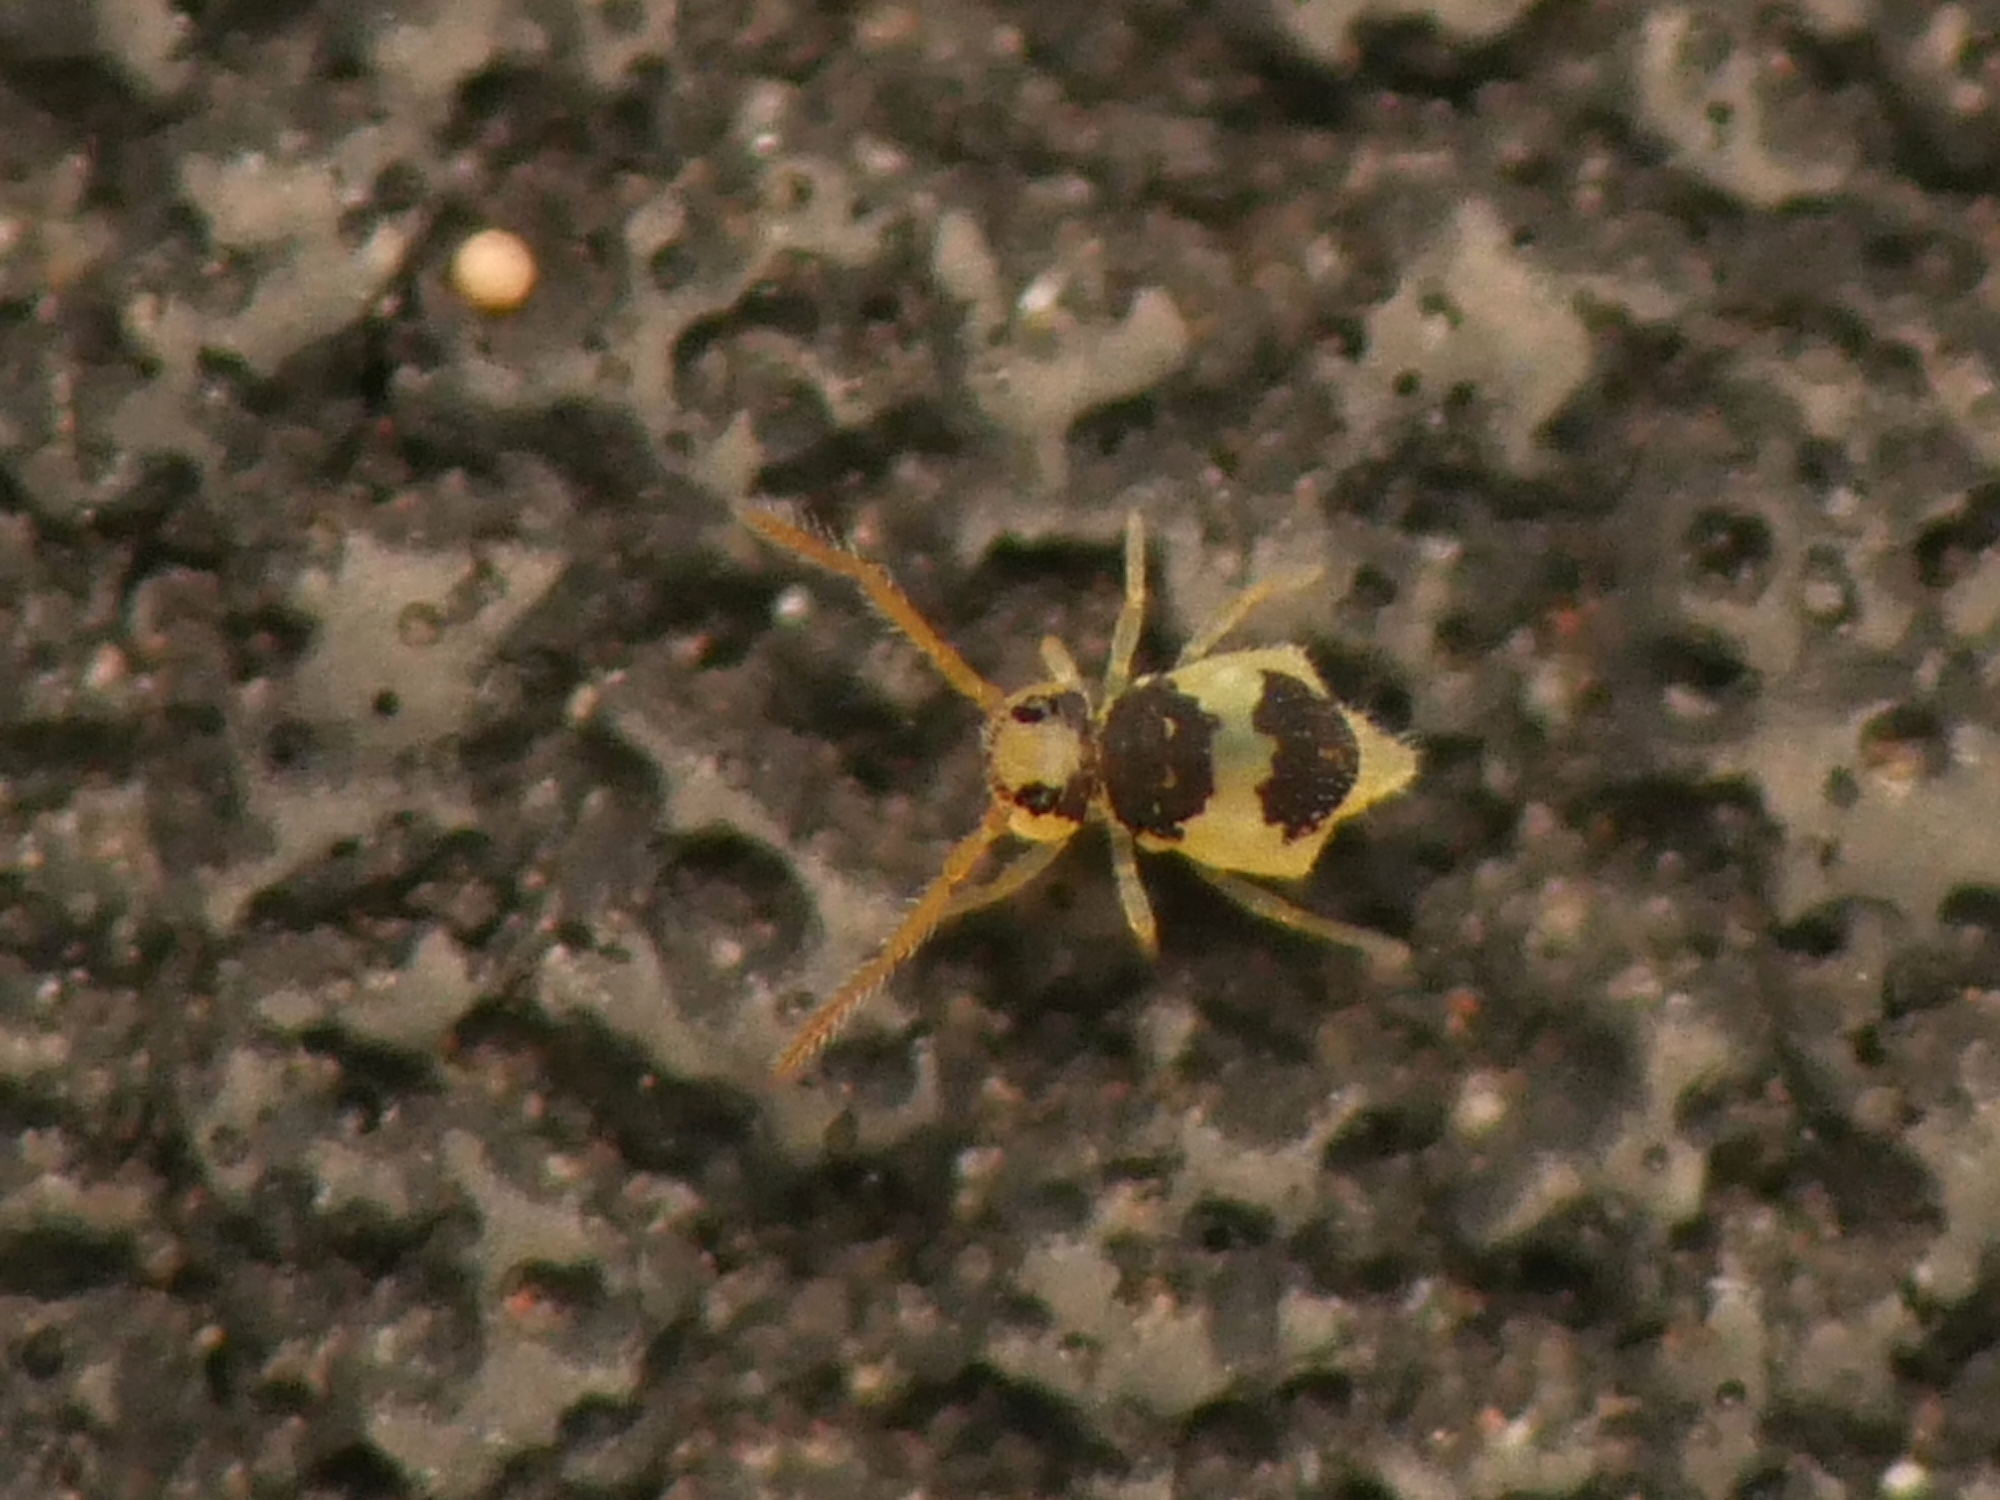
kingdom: Animalia
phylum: Arthropoda
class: Collembola
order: Symphypleona
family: Bourletiellidae
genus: Deuterosminthurus
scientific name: Deuterosminthurus bicinctus
